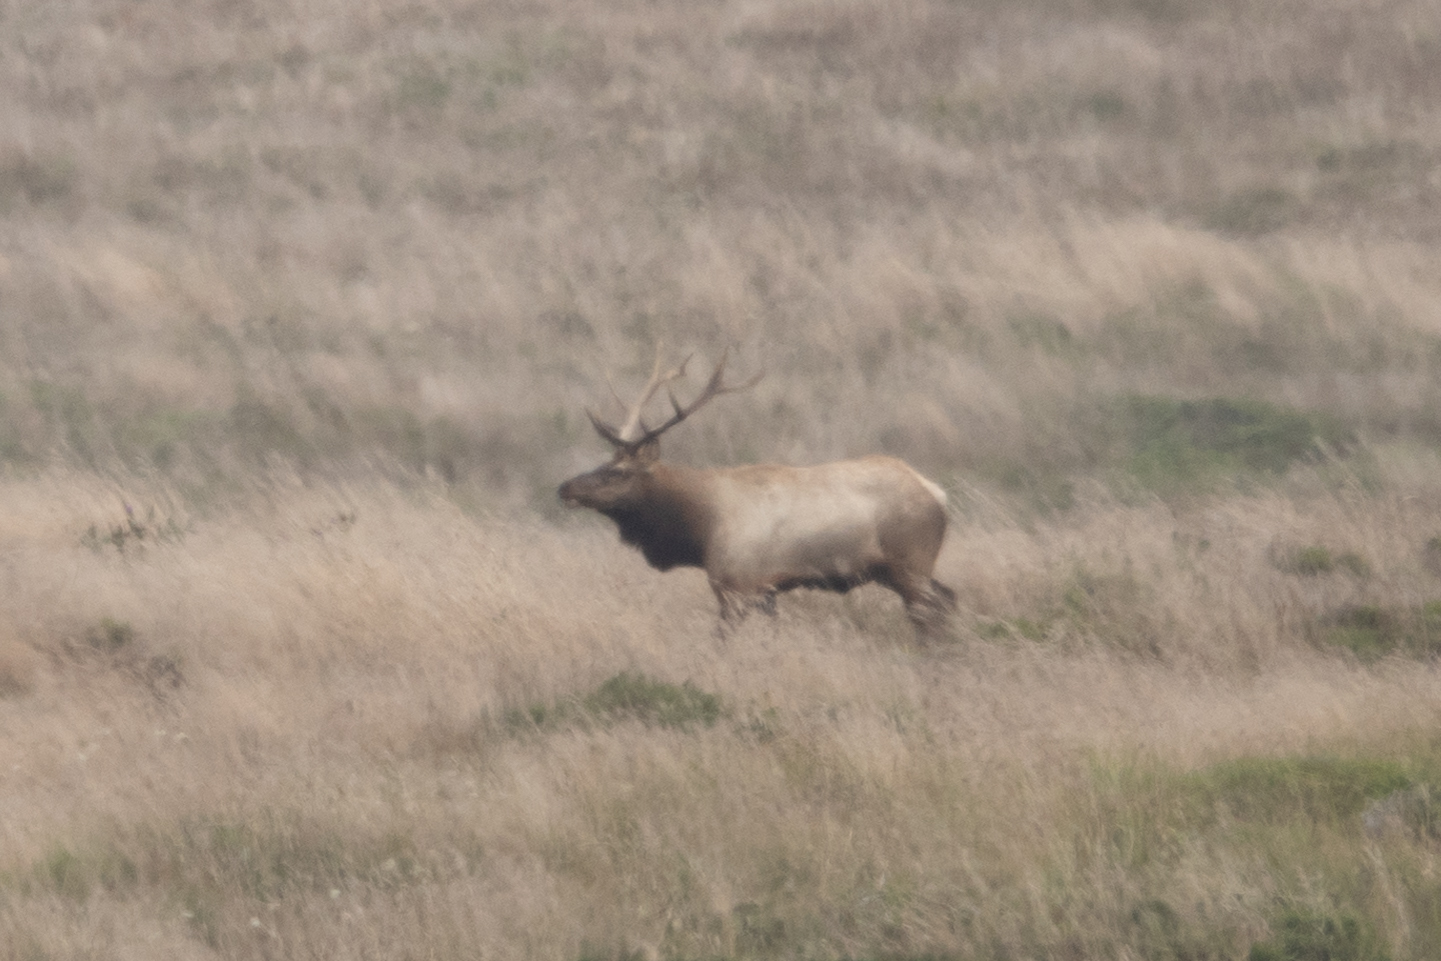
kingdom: Animalia
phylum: Chordata
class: Mammalia
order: Artiodactyla
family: Cervidae
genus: Cervus
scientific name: Cervus elaphus
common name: Red deer
